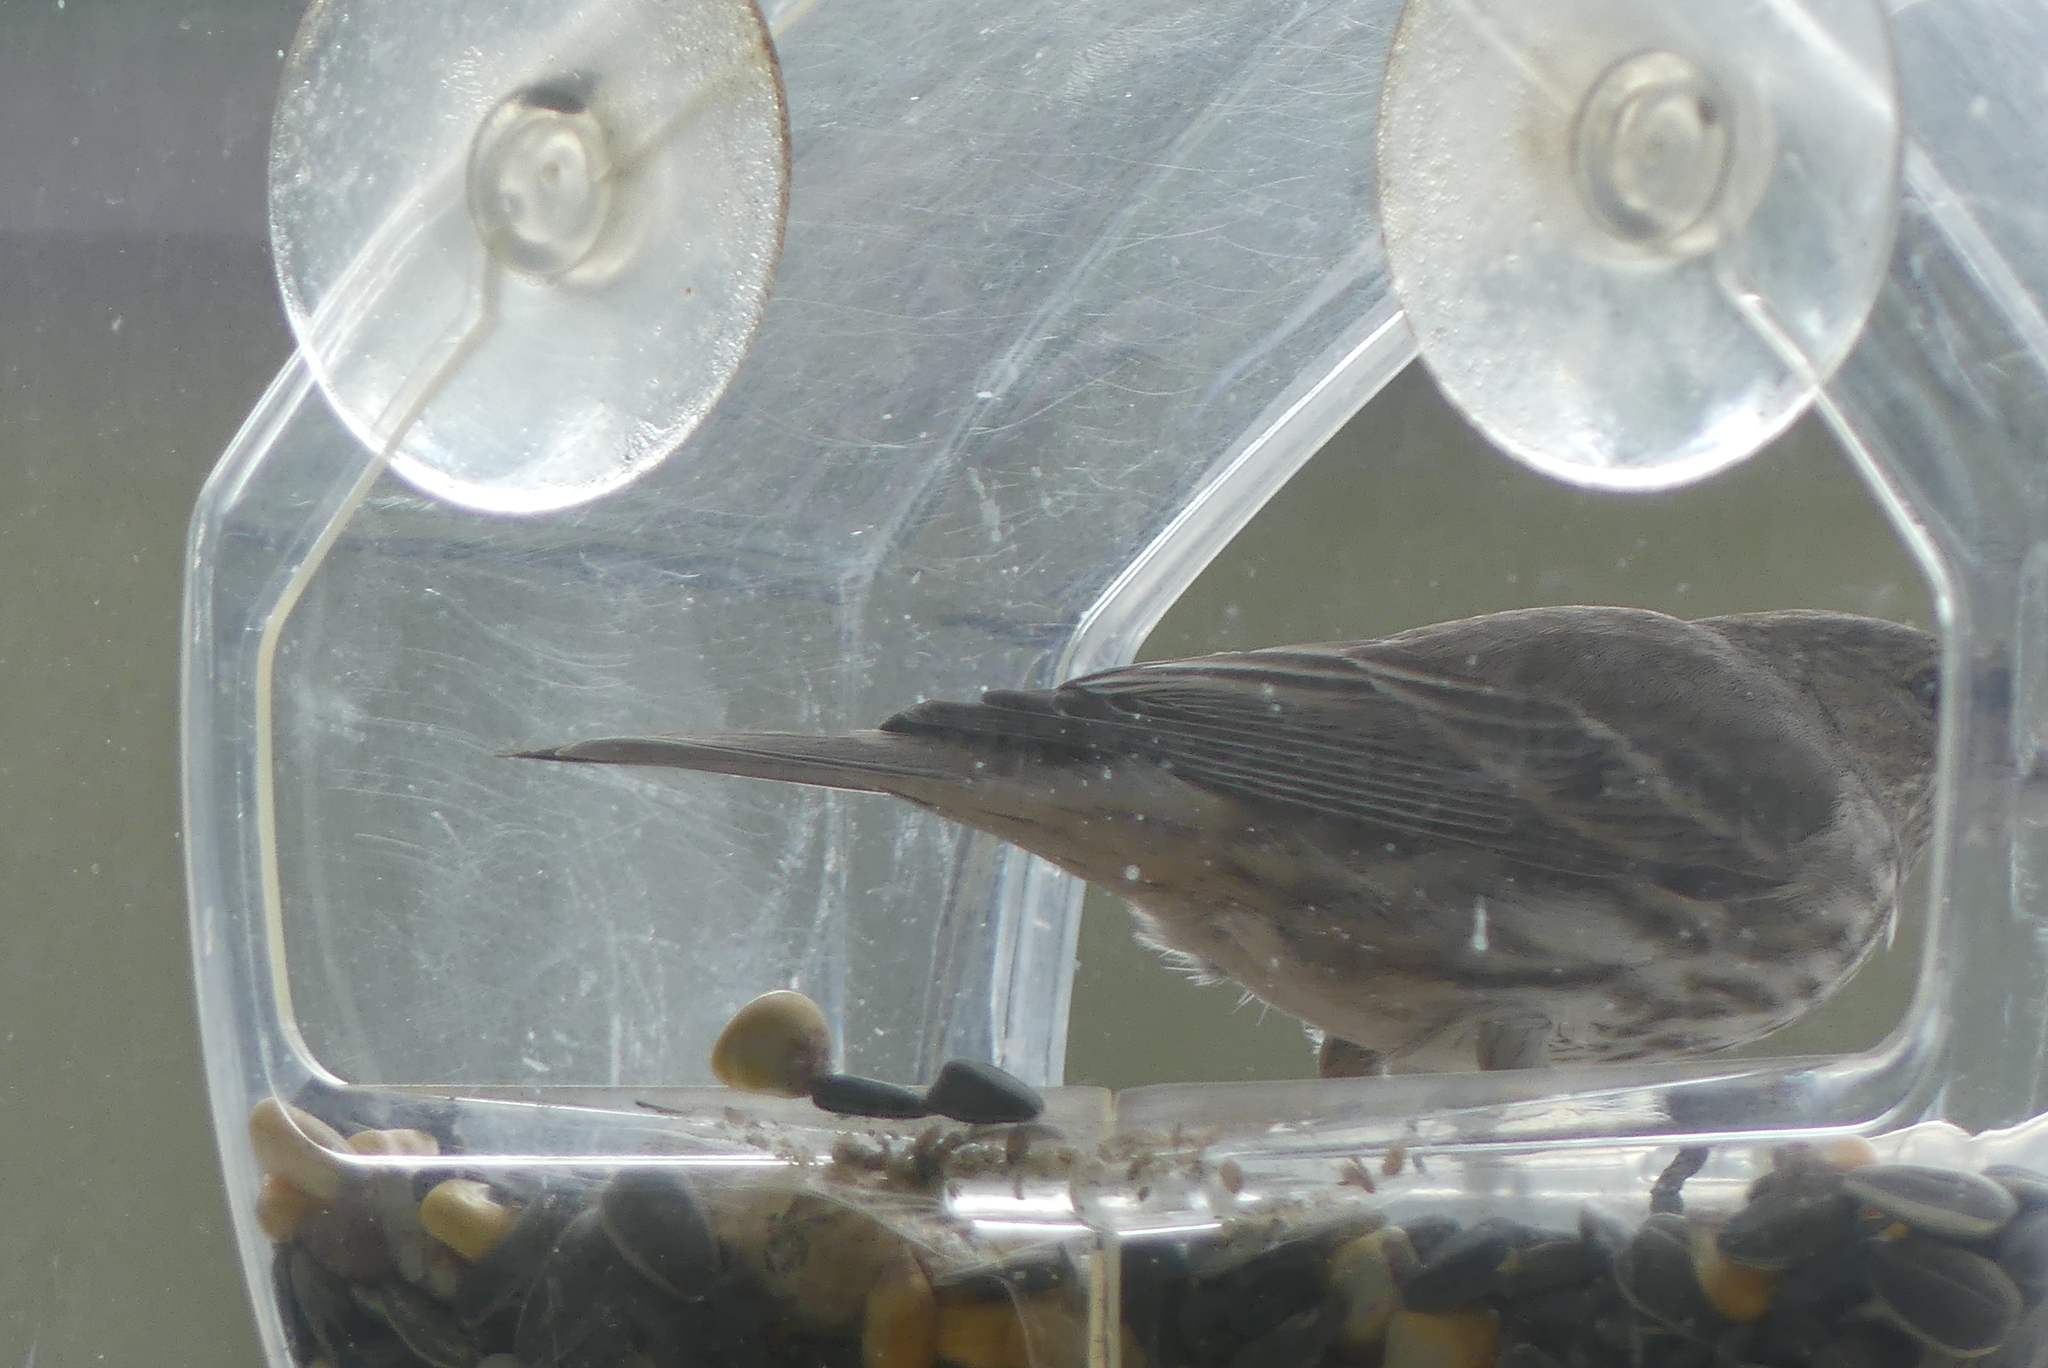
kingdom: Animalia
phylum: Chordata
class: Aves
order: Passeriformes
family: Fringillidae
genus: Haemorhous
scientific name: Haemorhous mexicanus
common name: House finch
